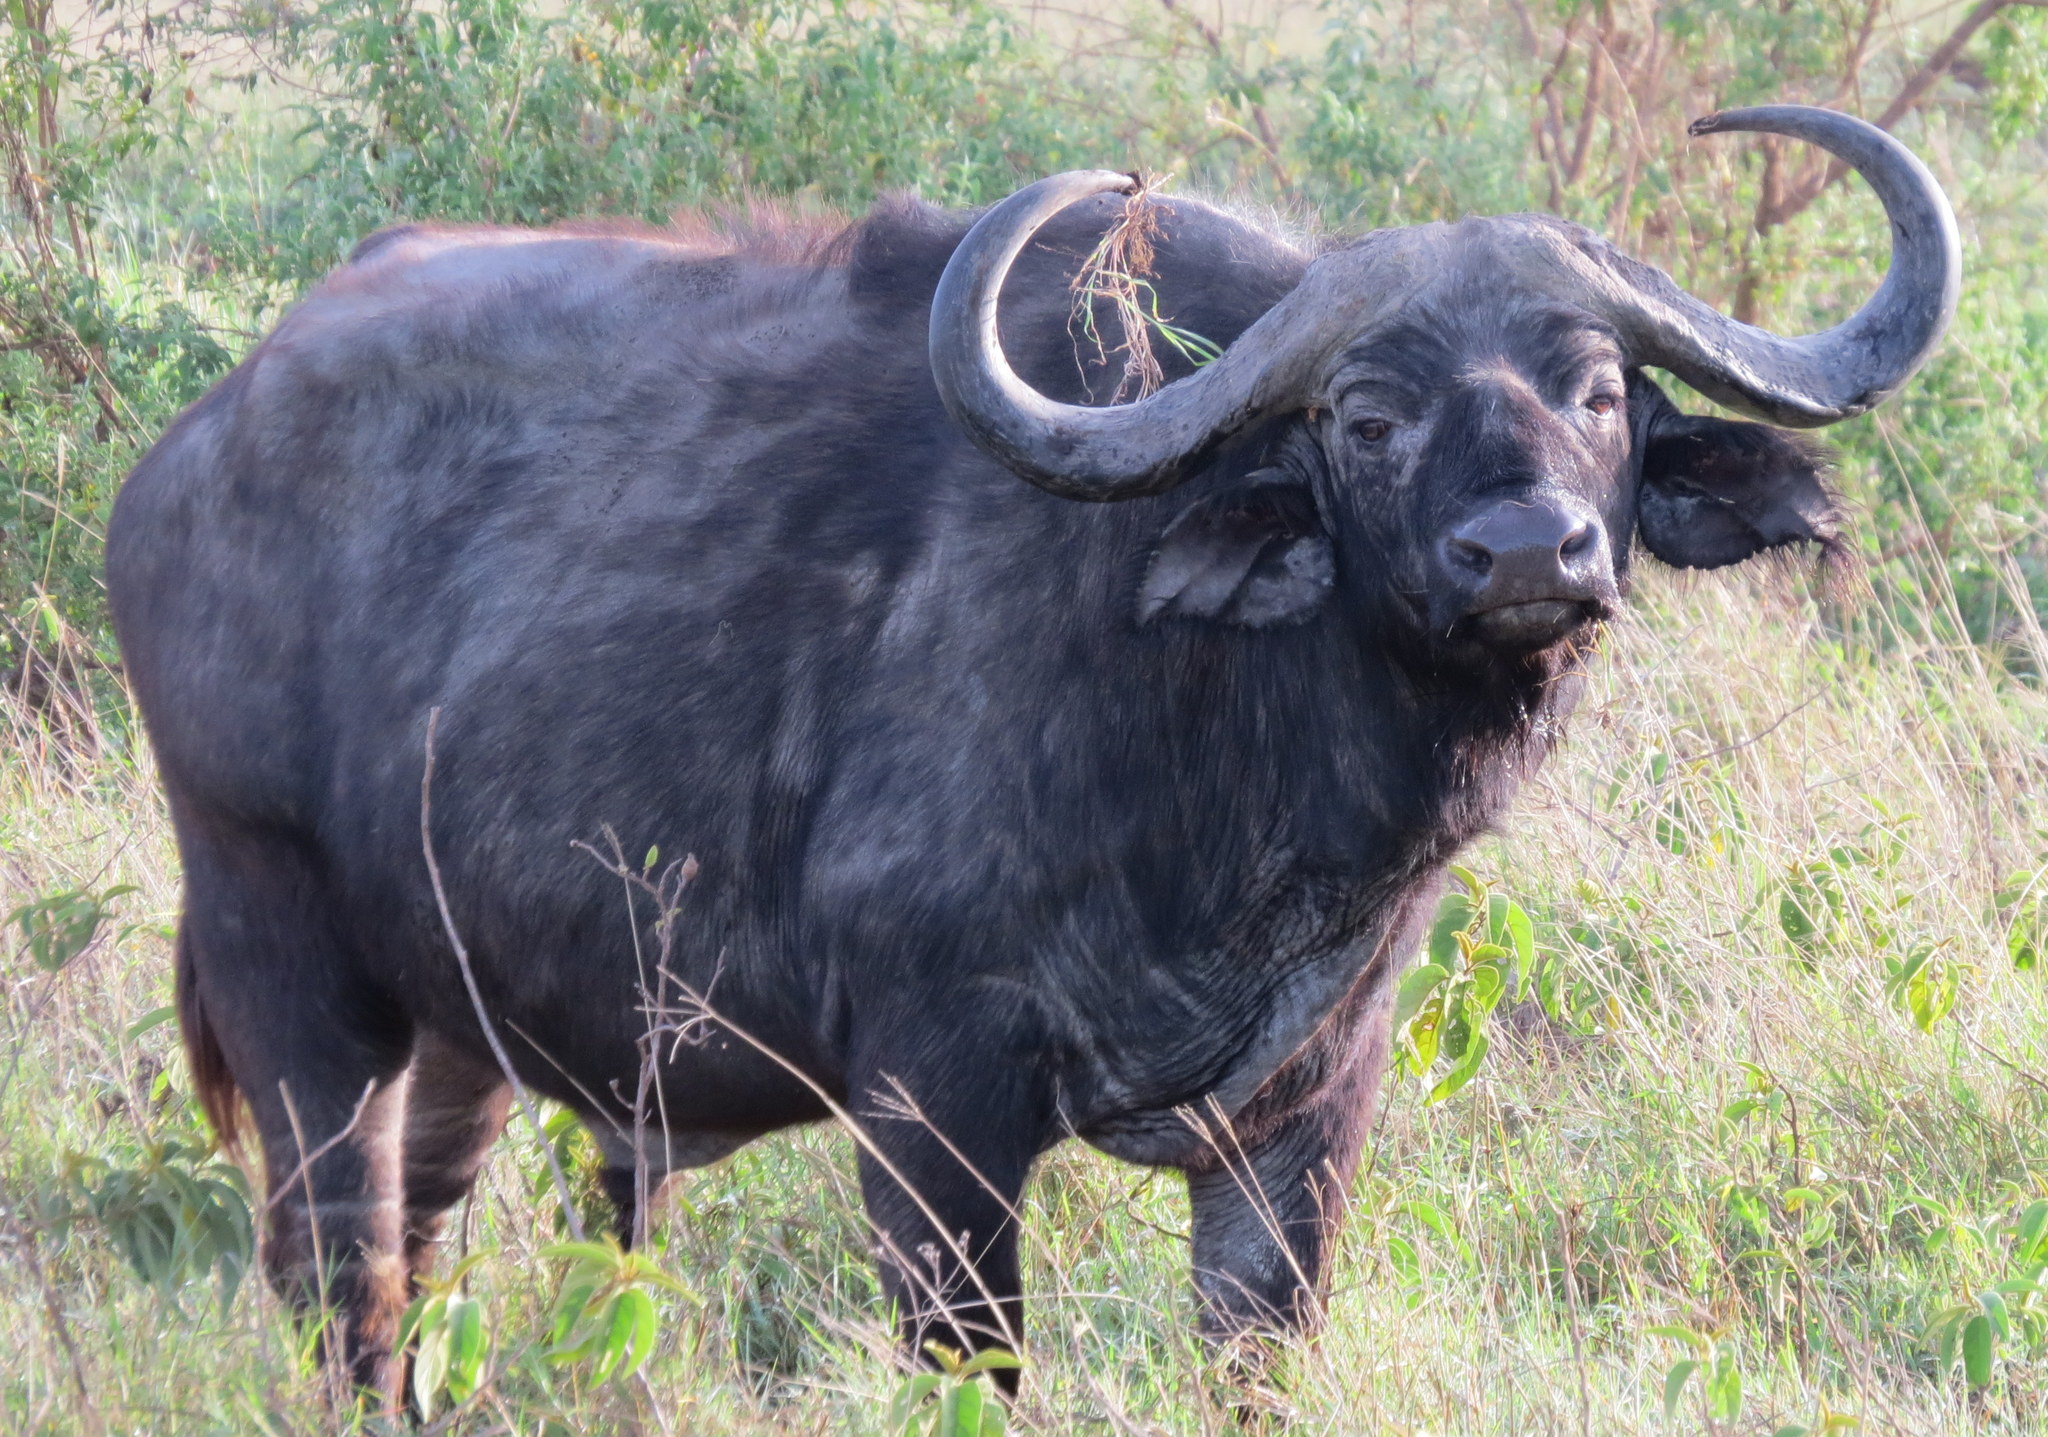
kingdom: Animalia
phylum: Chordata
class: Mammalia
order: Artiodactyla
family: Bovidae
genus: Syncerus
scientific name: Syncerus caffer
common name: African buffalo
